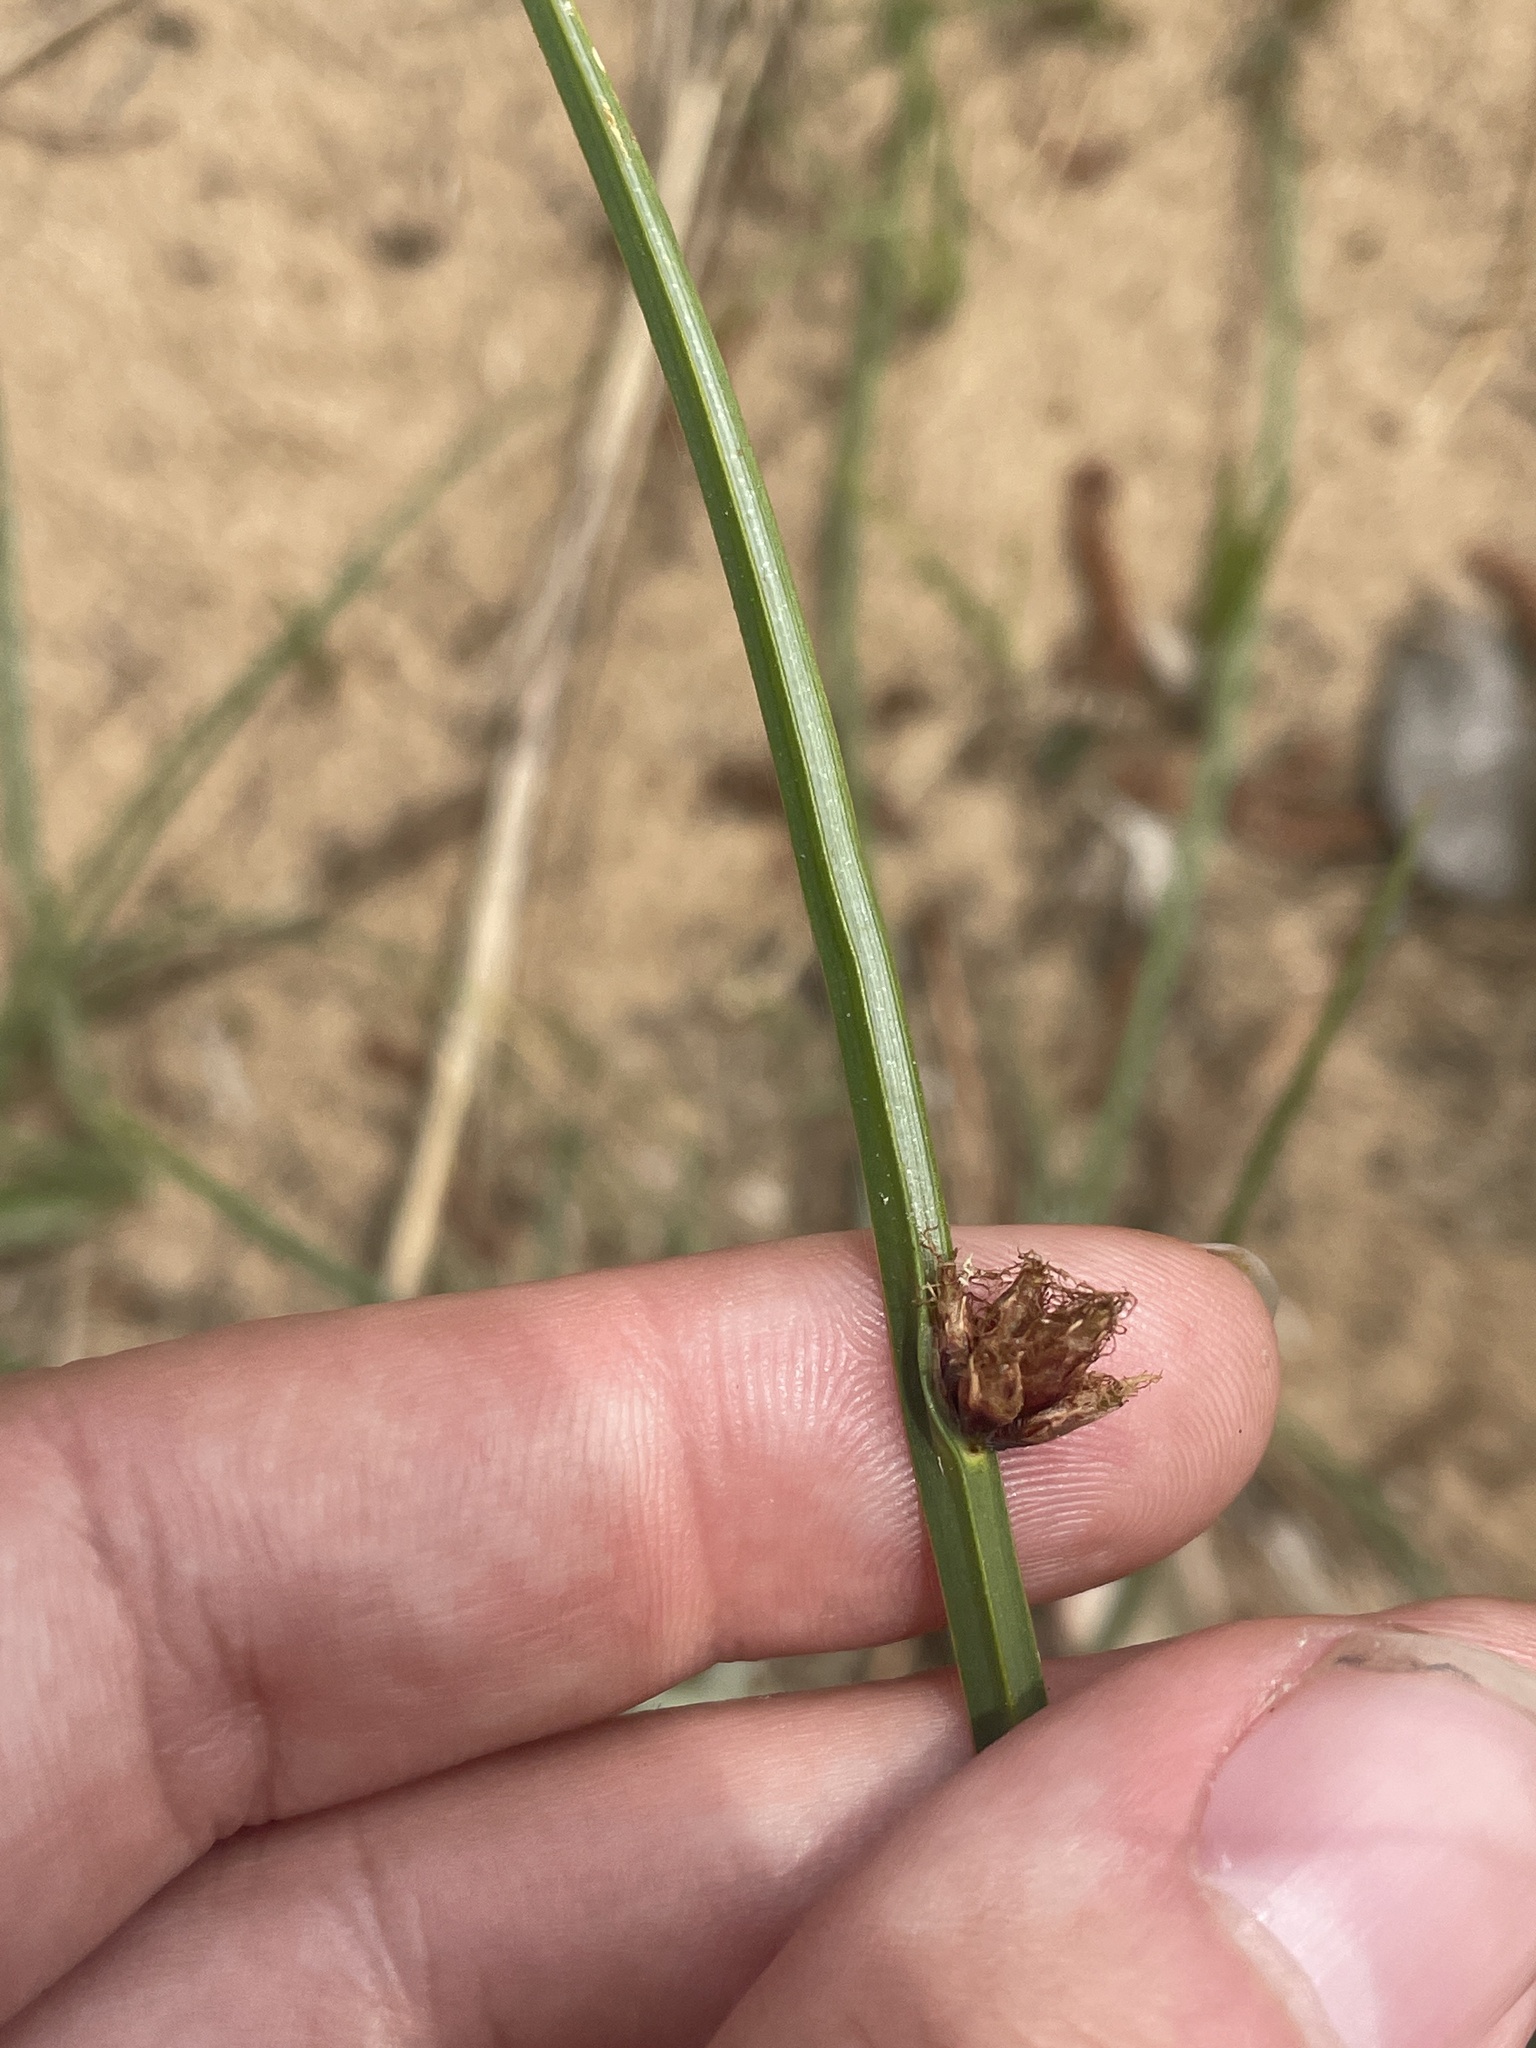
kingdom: Plantae
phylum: Tracheophyta
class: Liliopsida
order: Poales
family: Cyperaceae
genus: Schoenoplectus
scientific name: Schoenoplectus pungens
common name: Sharp club-rush
